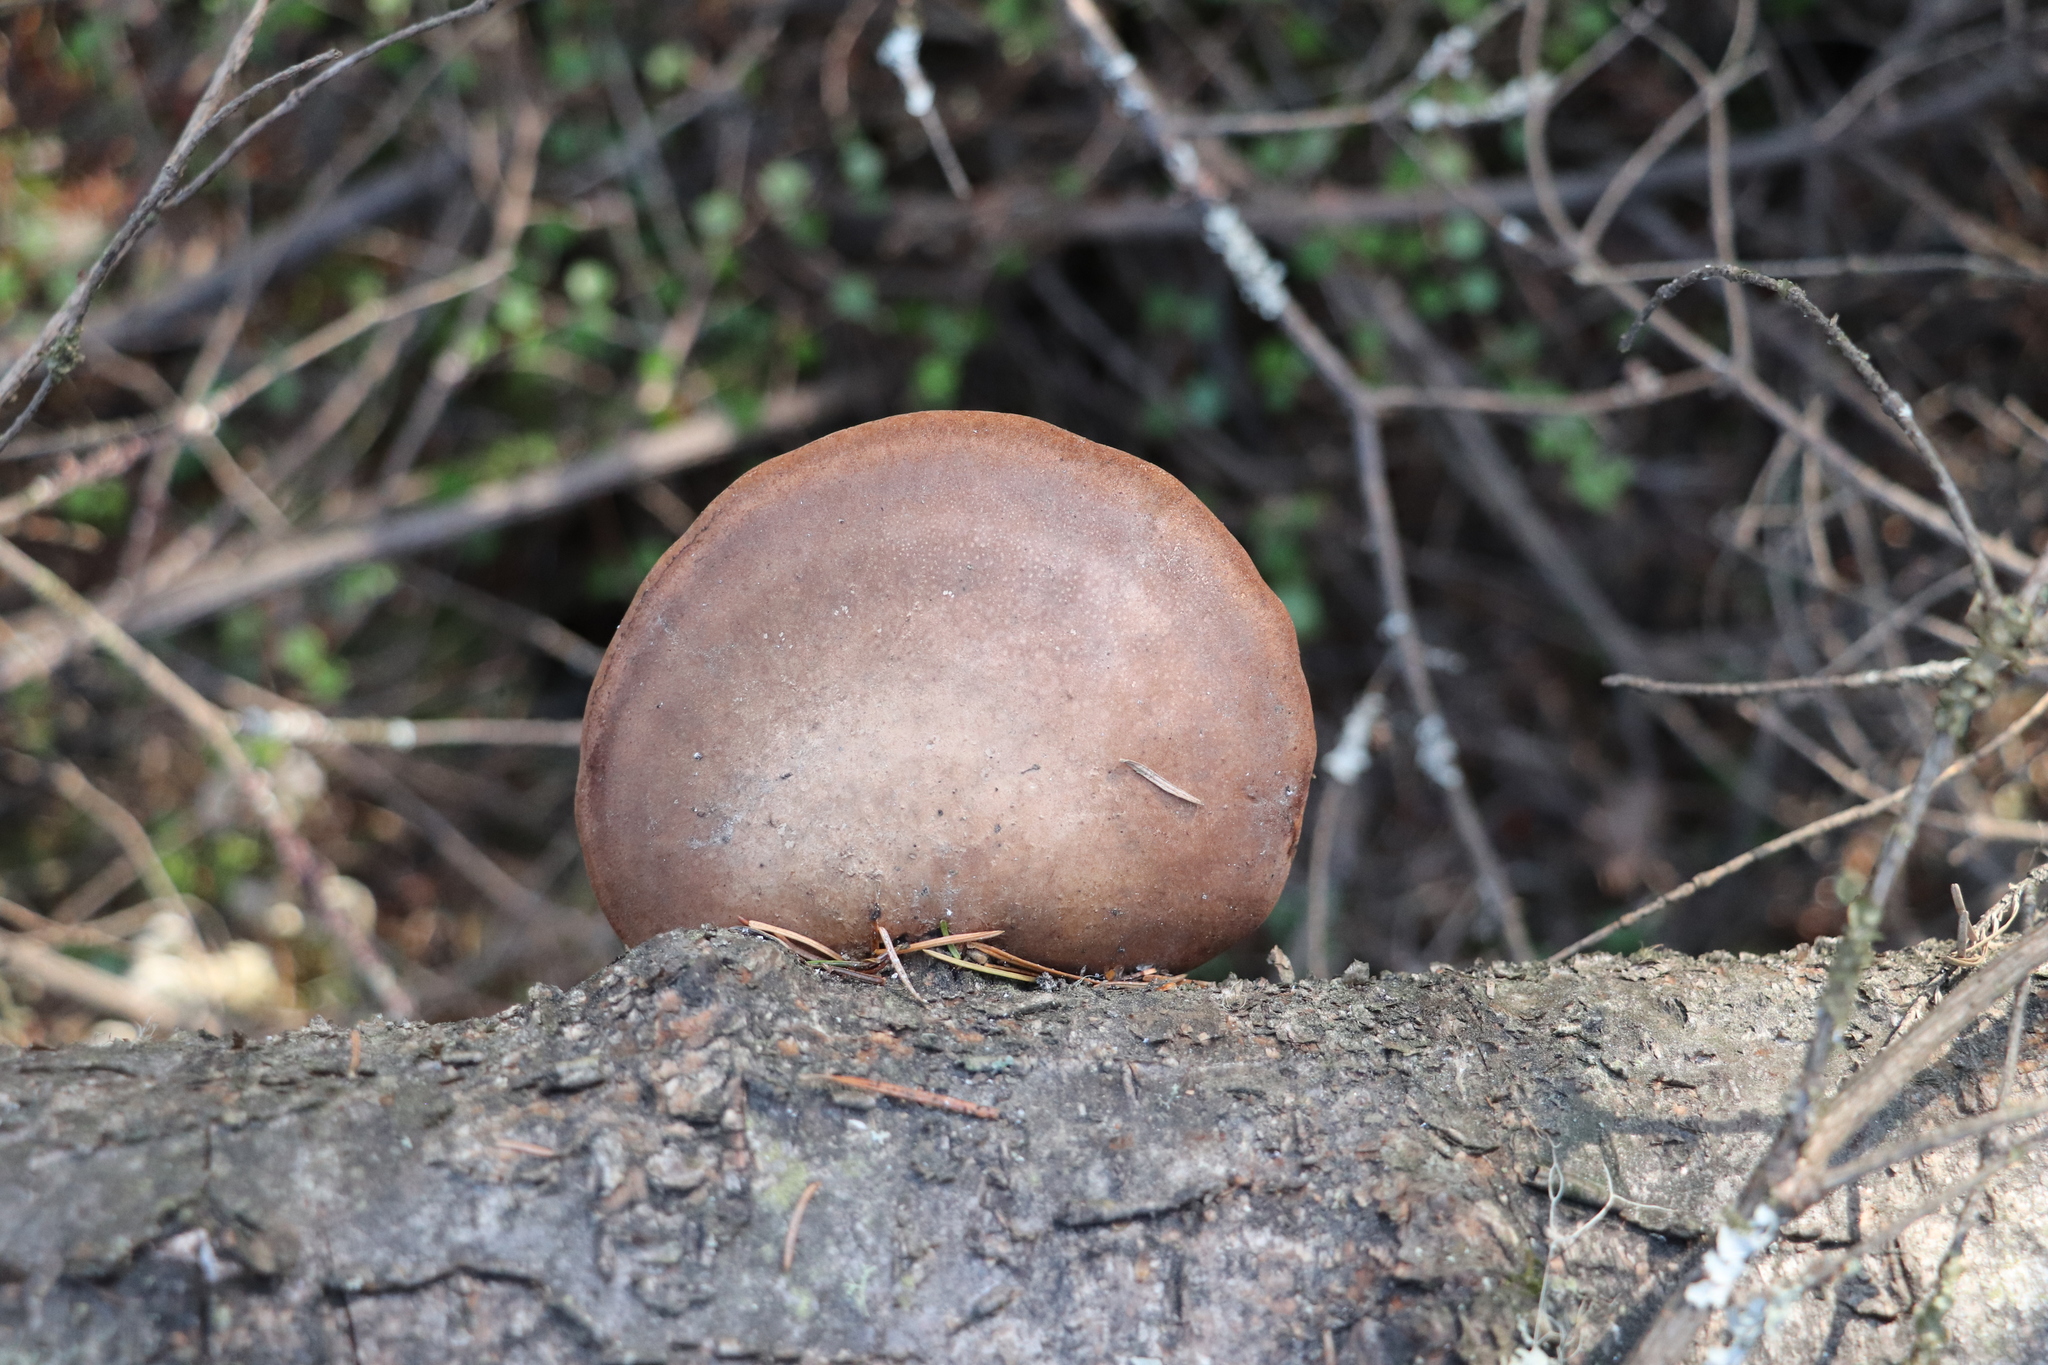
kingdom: Fungi
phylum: Basidiomycota
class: Agaricomycetes
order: Polyporales
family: Fomitopsidaceae
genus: Fomitopsis
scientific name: Fomitopsis betulina
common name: Birch polypore
